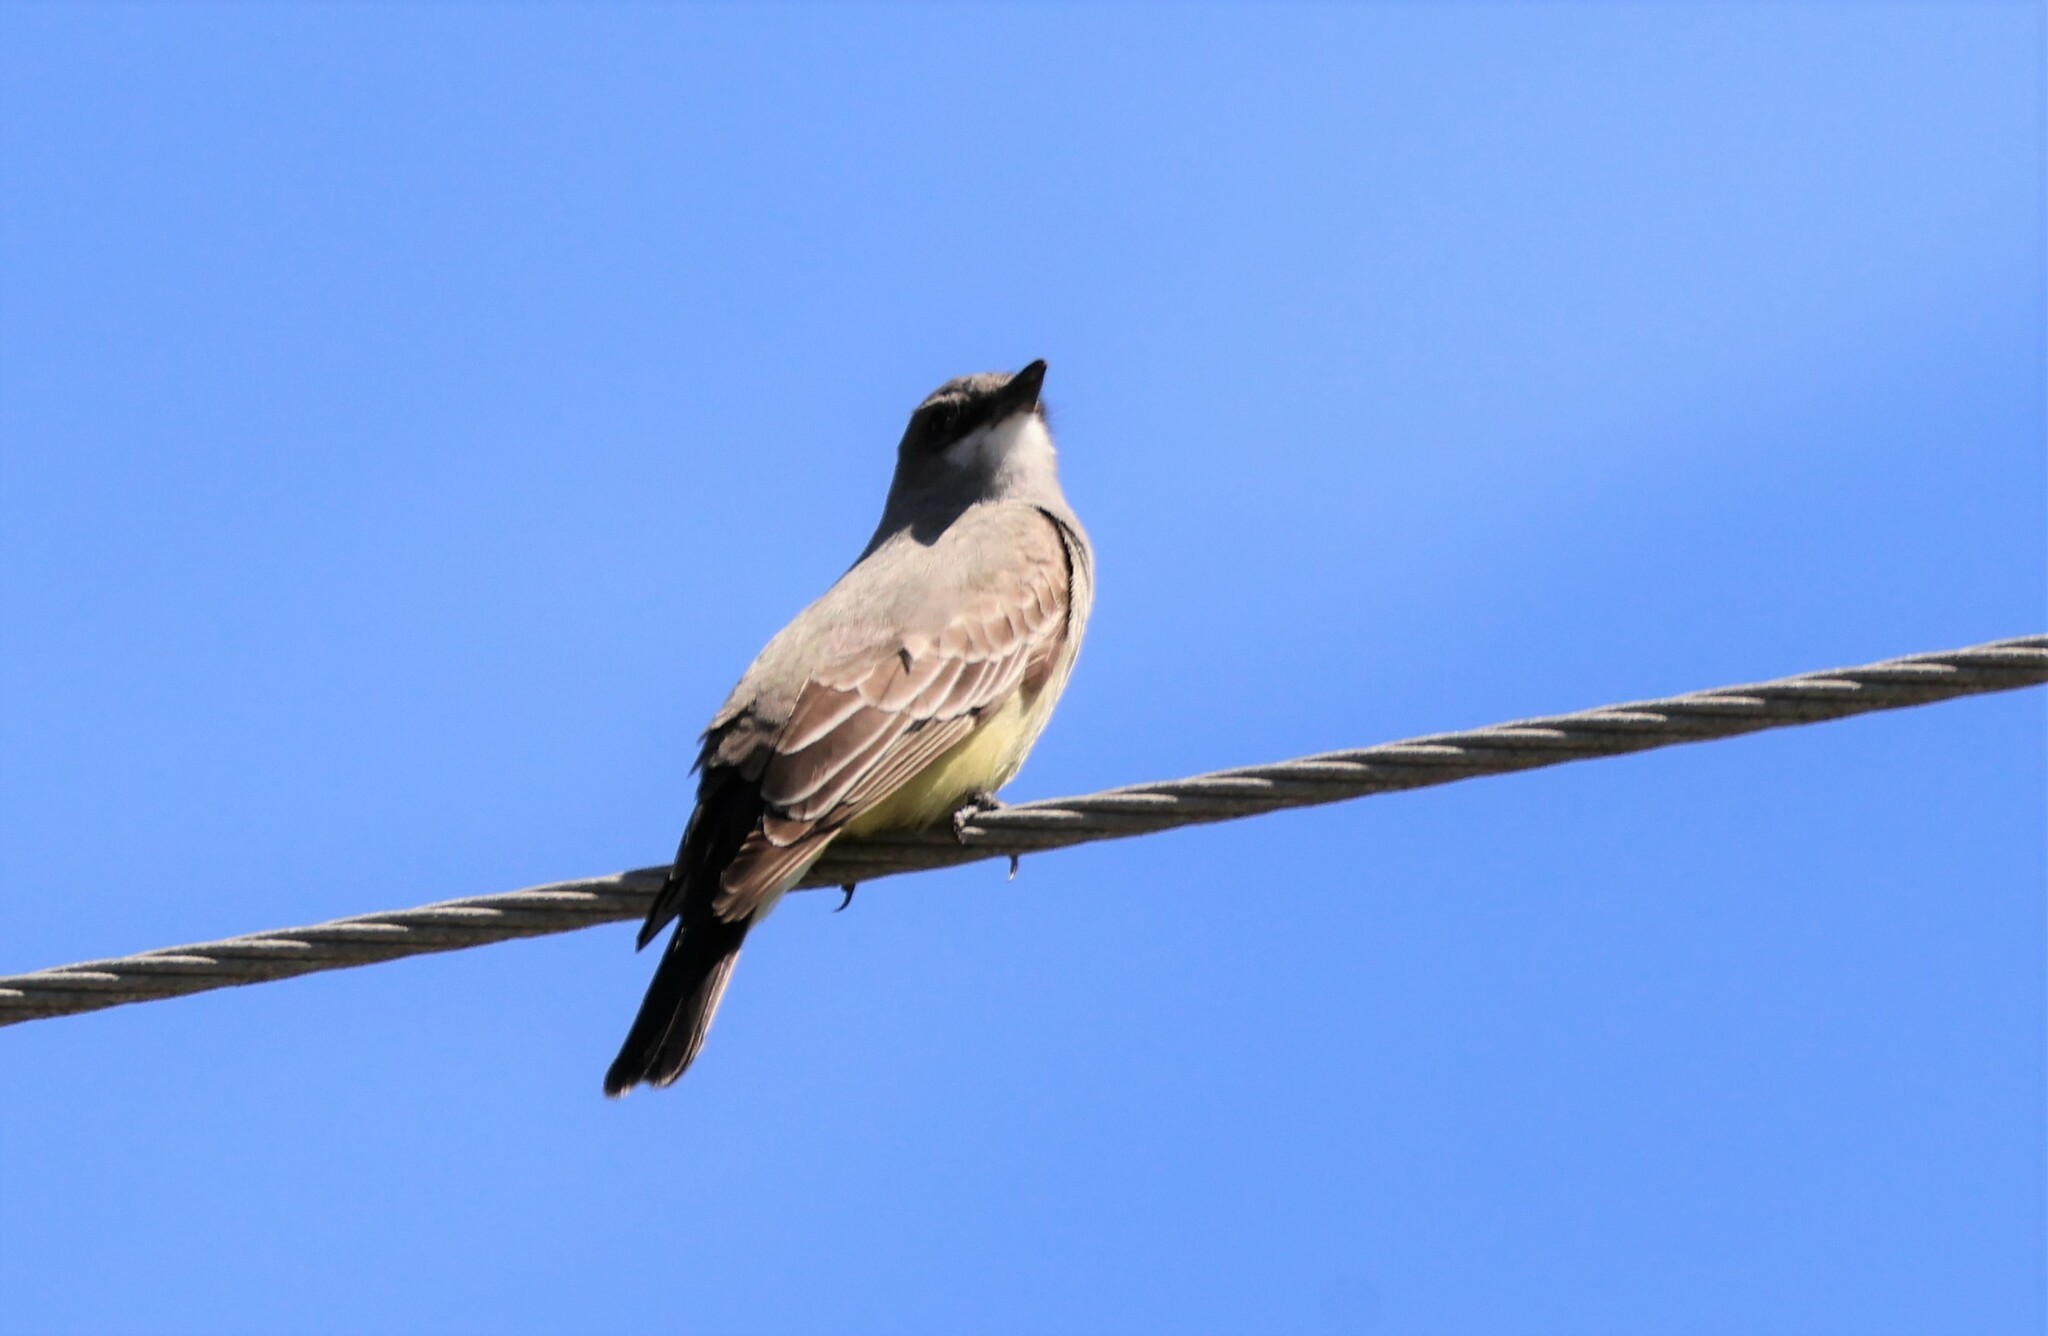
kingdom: Animalia
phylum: Chordata
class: Aves
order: Passeriformes
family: Tyrannidae
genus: Tyrannus
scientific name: Tyrannus vociferans
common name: Cassin's kingbird
